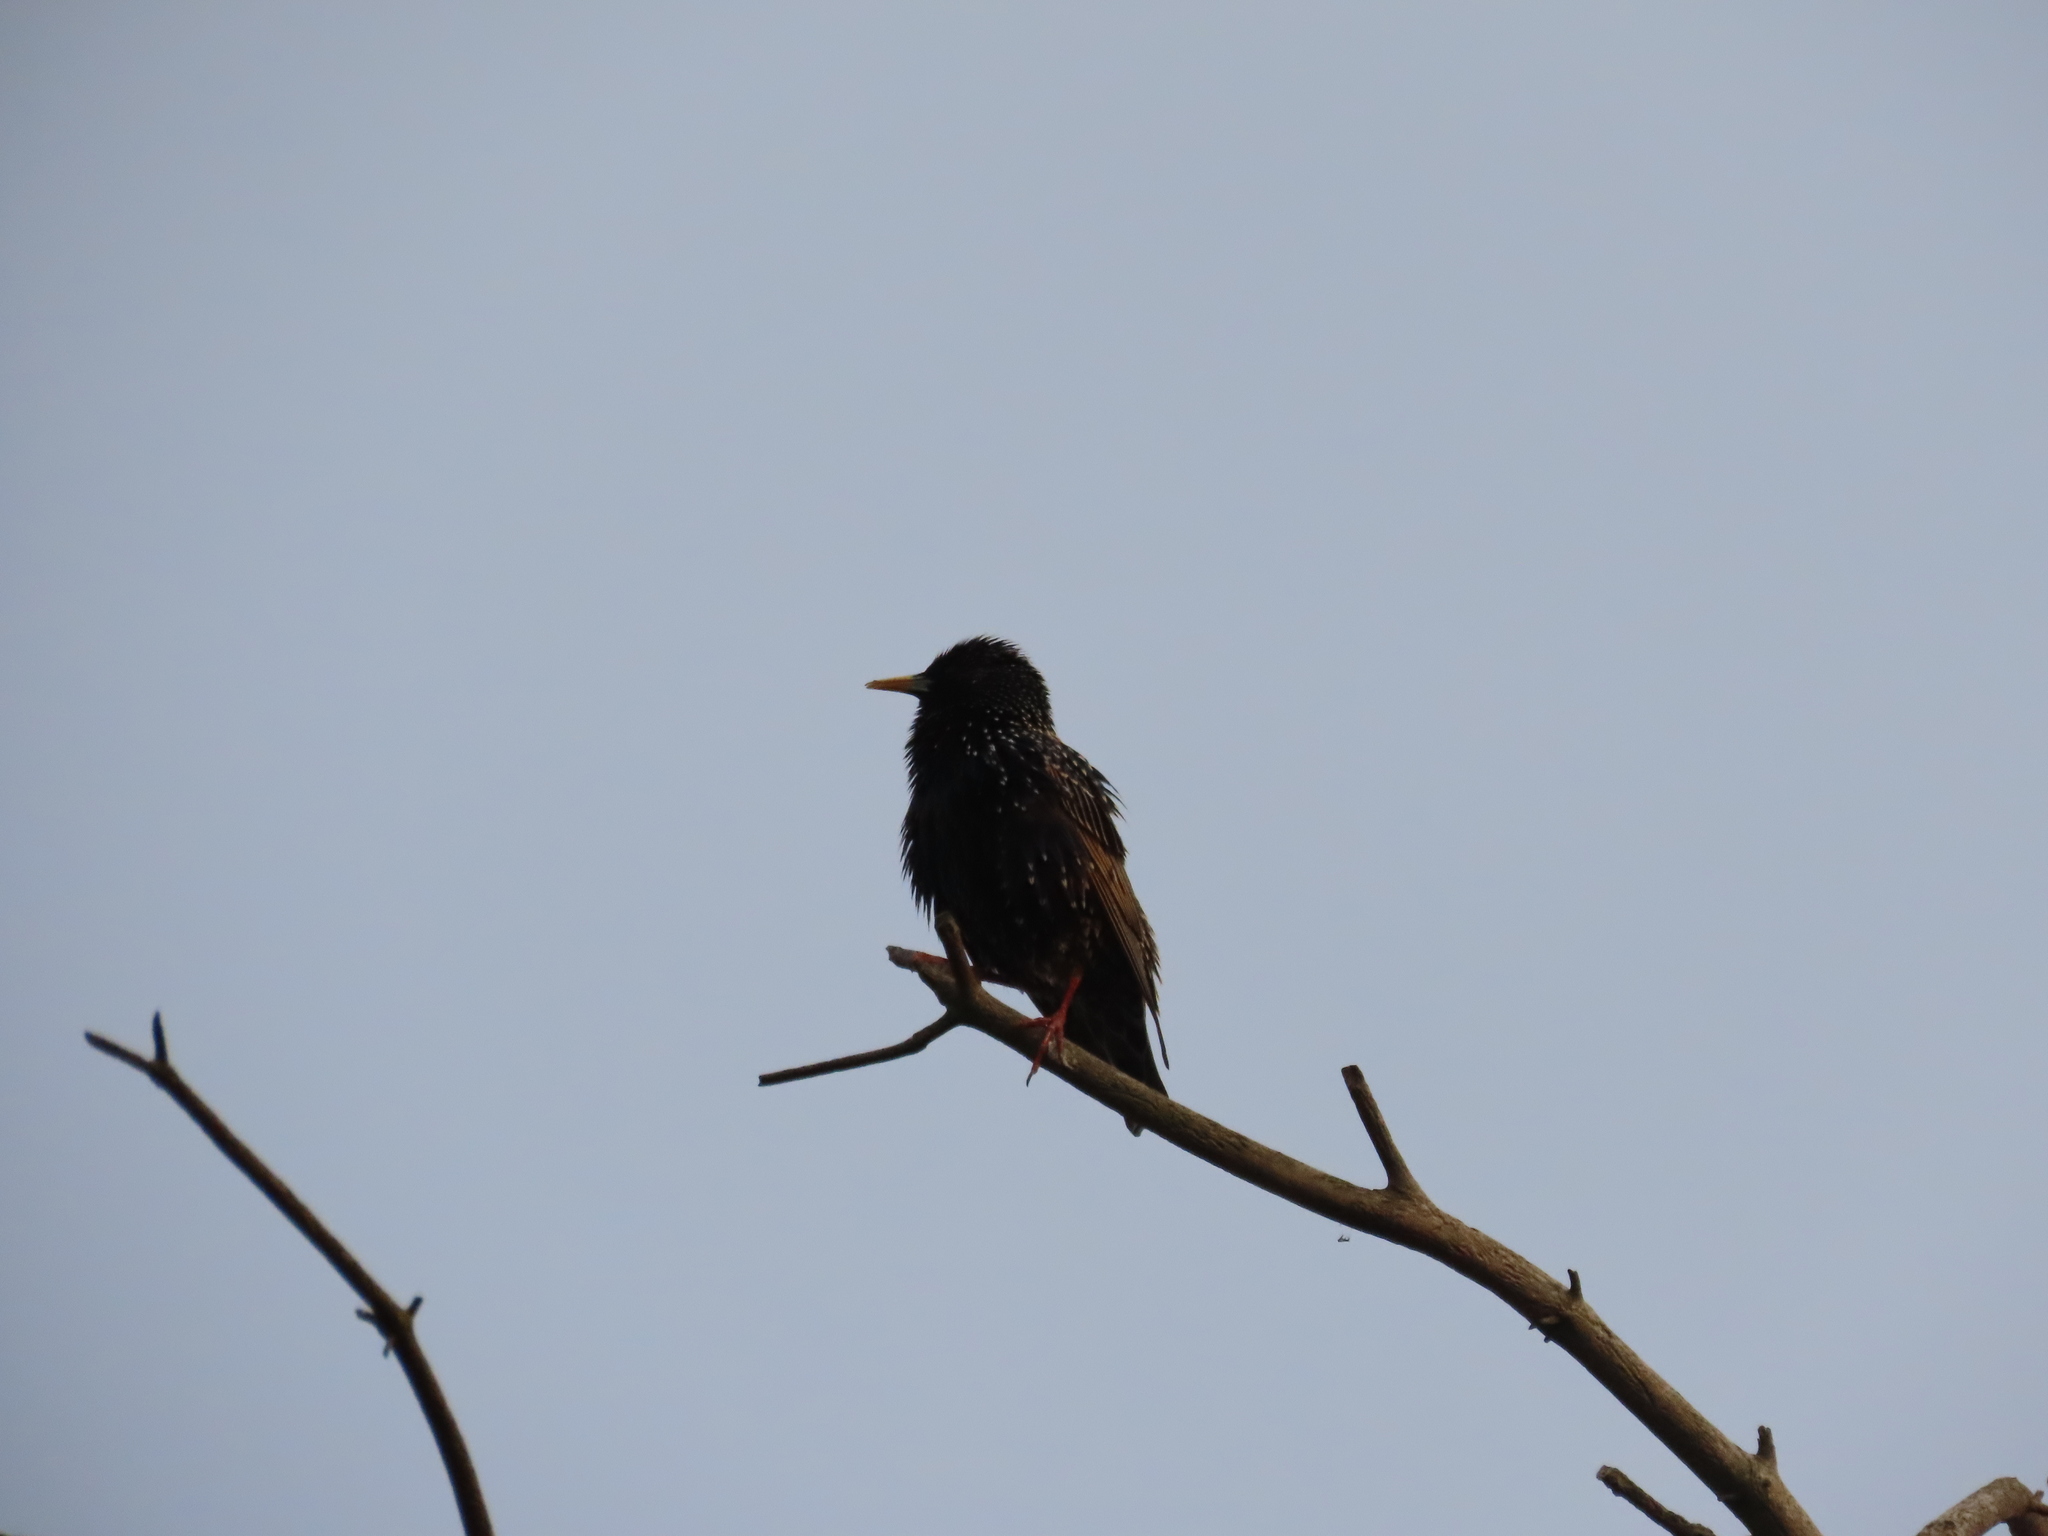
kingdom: Animalia
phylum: Chordata
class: Aves
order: Passeriformes
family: Sturnidae
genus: Sturnus
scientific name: Sturnus vulgaris
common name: Common starling
